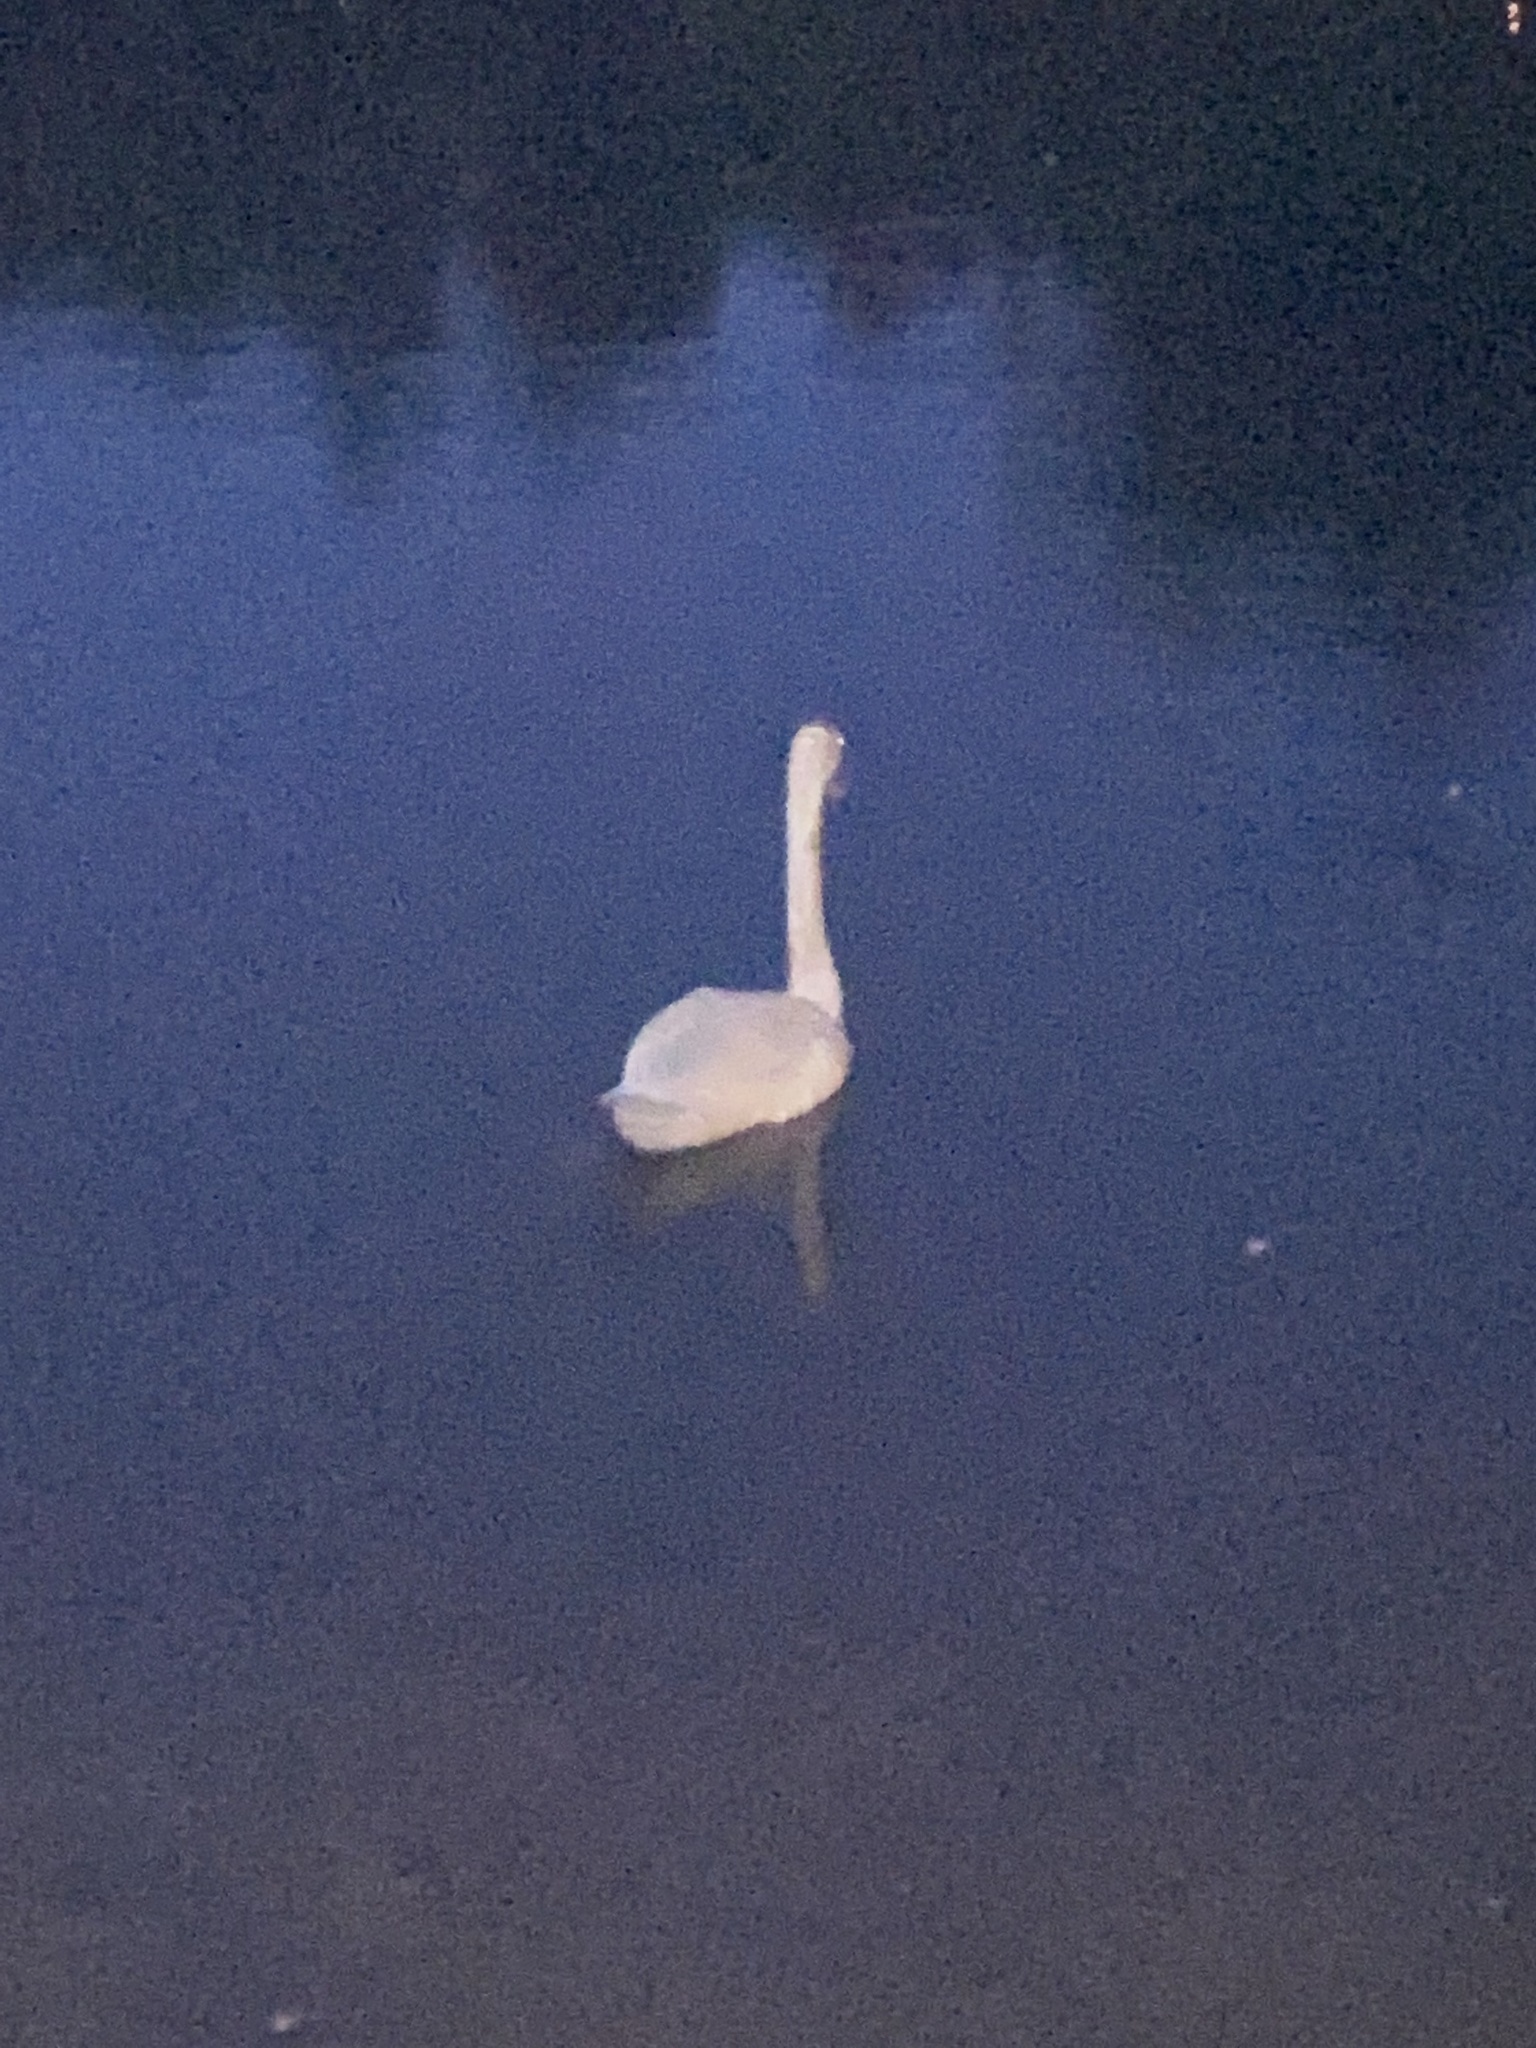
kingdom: Animalia
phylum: Chordata
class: Aves
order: Anseriformes
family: Anatidae
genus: Cygnus
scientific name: Cygnus olor
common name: Mute swan
